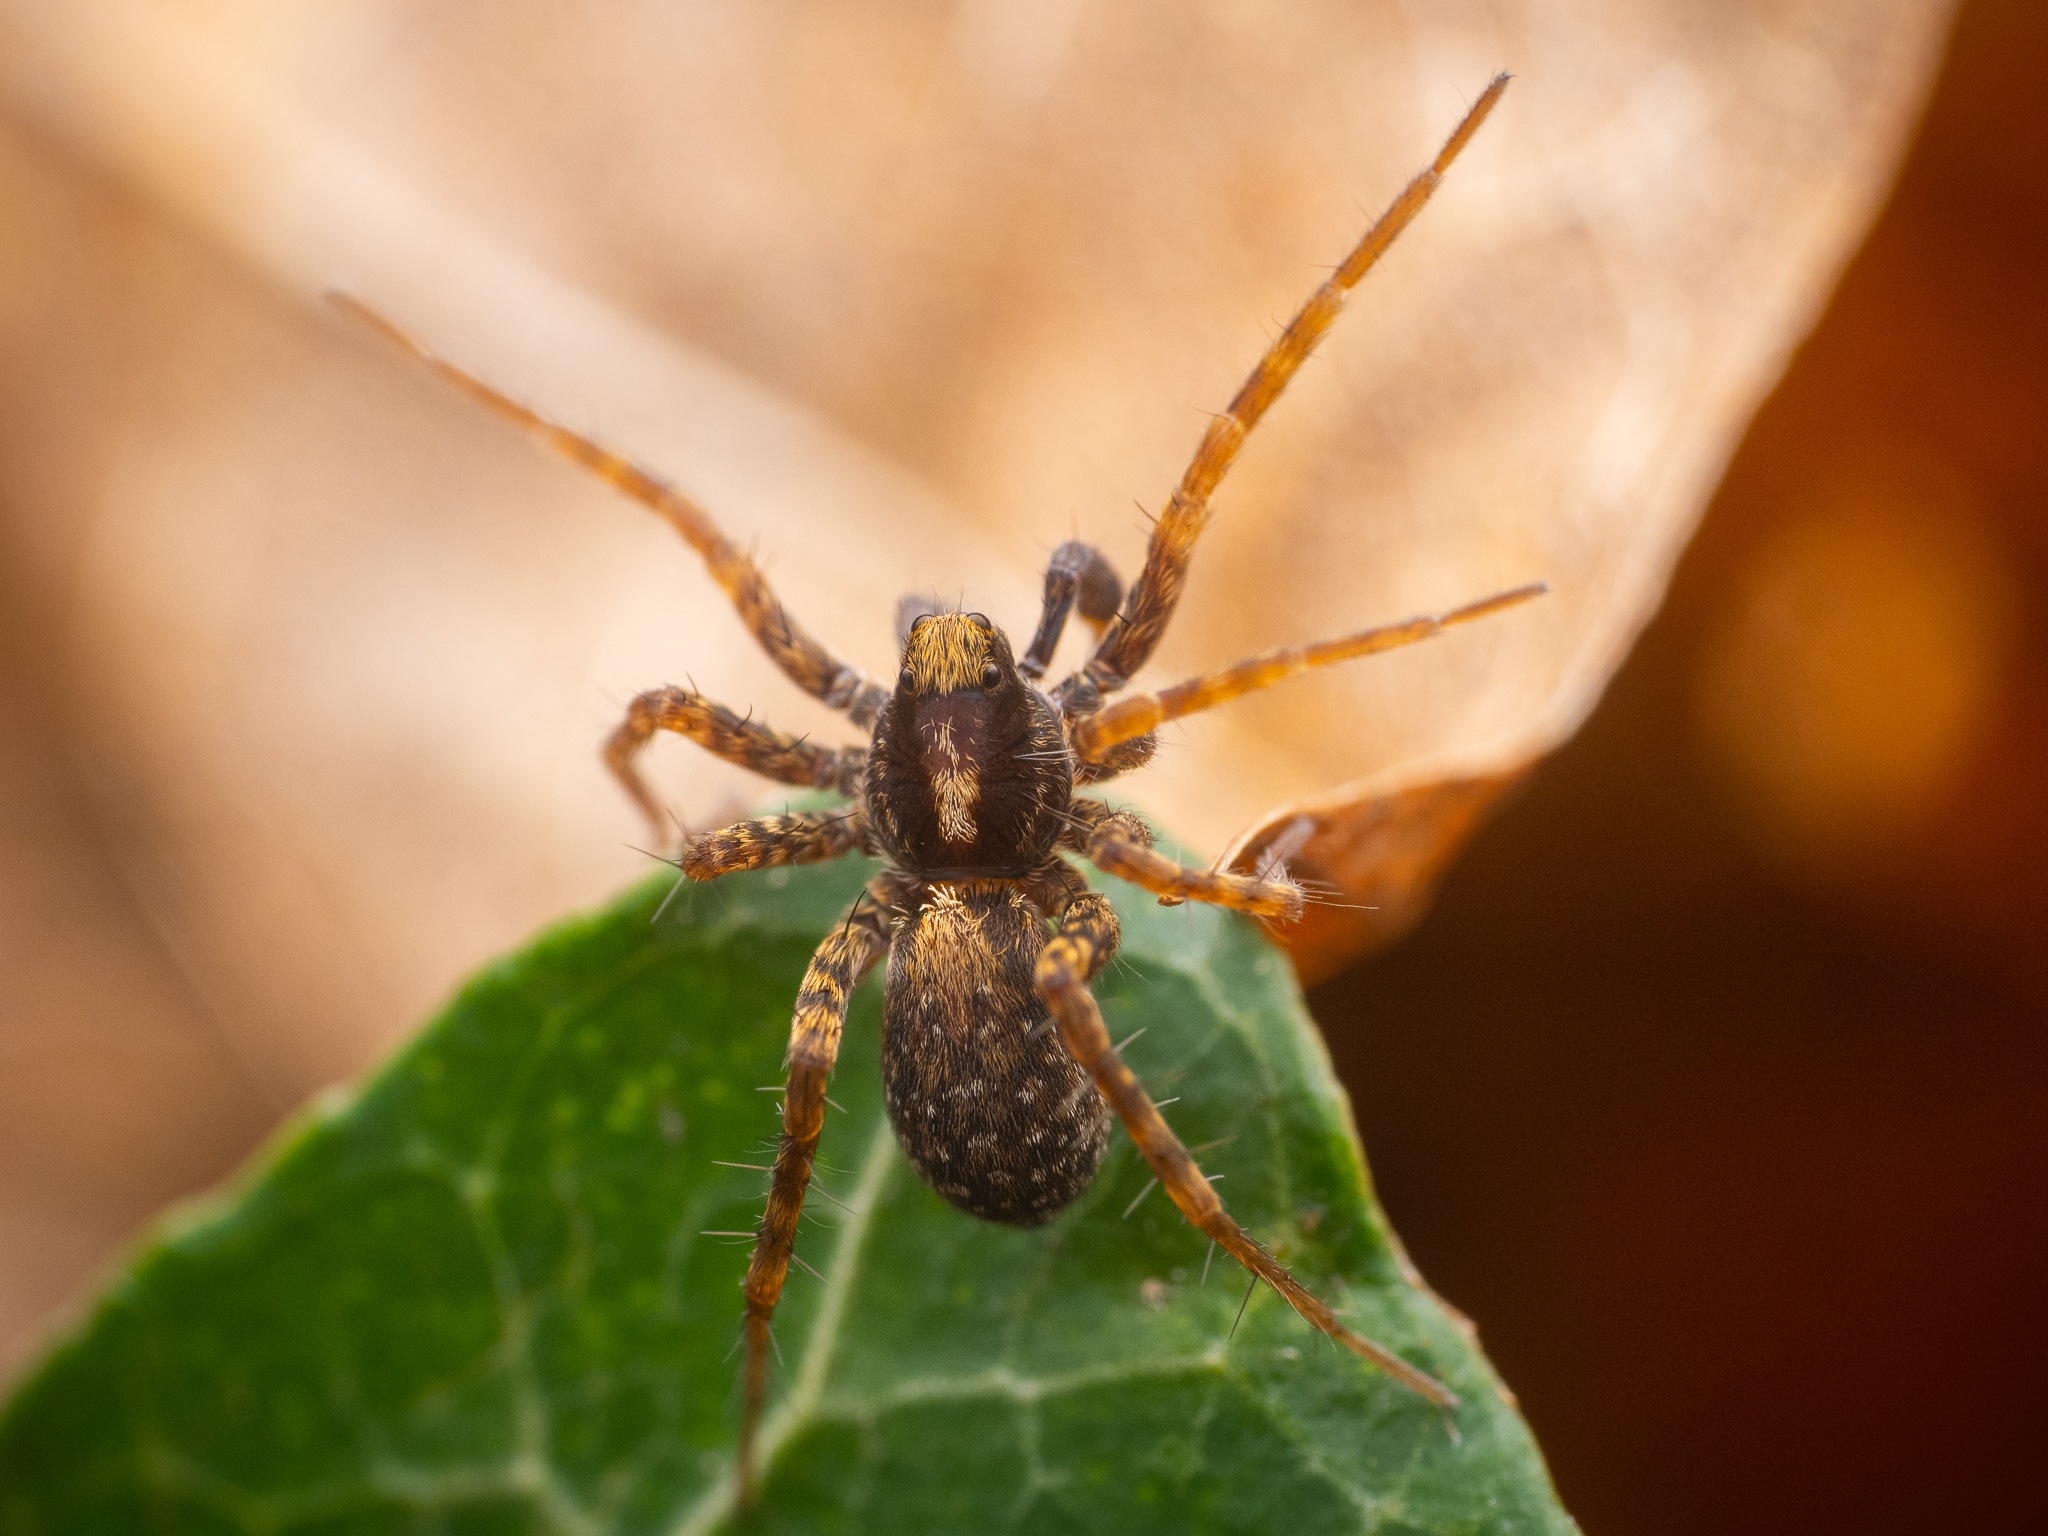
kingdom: Animalia
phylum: Arthropoda
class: Arachnida
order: Araneae
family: Lycosidae
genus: Pardosa
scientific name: Pardosa
